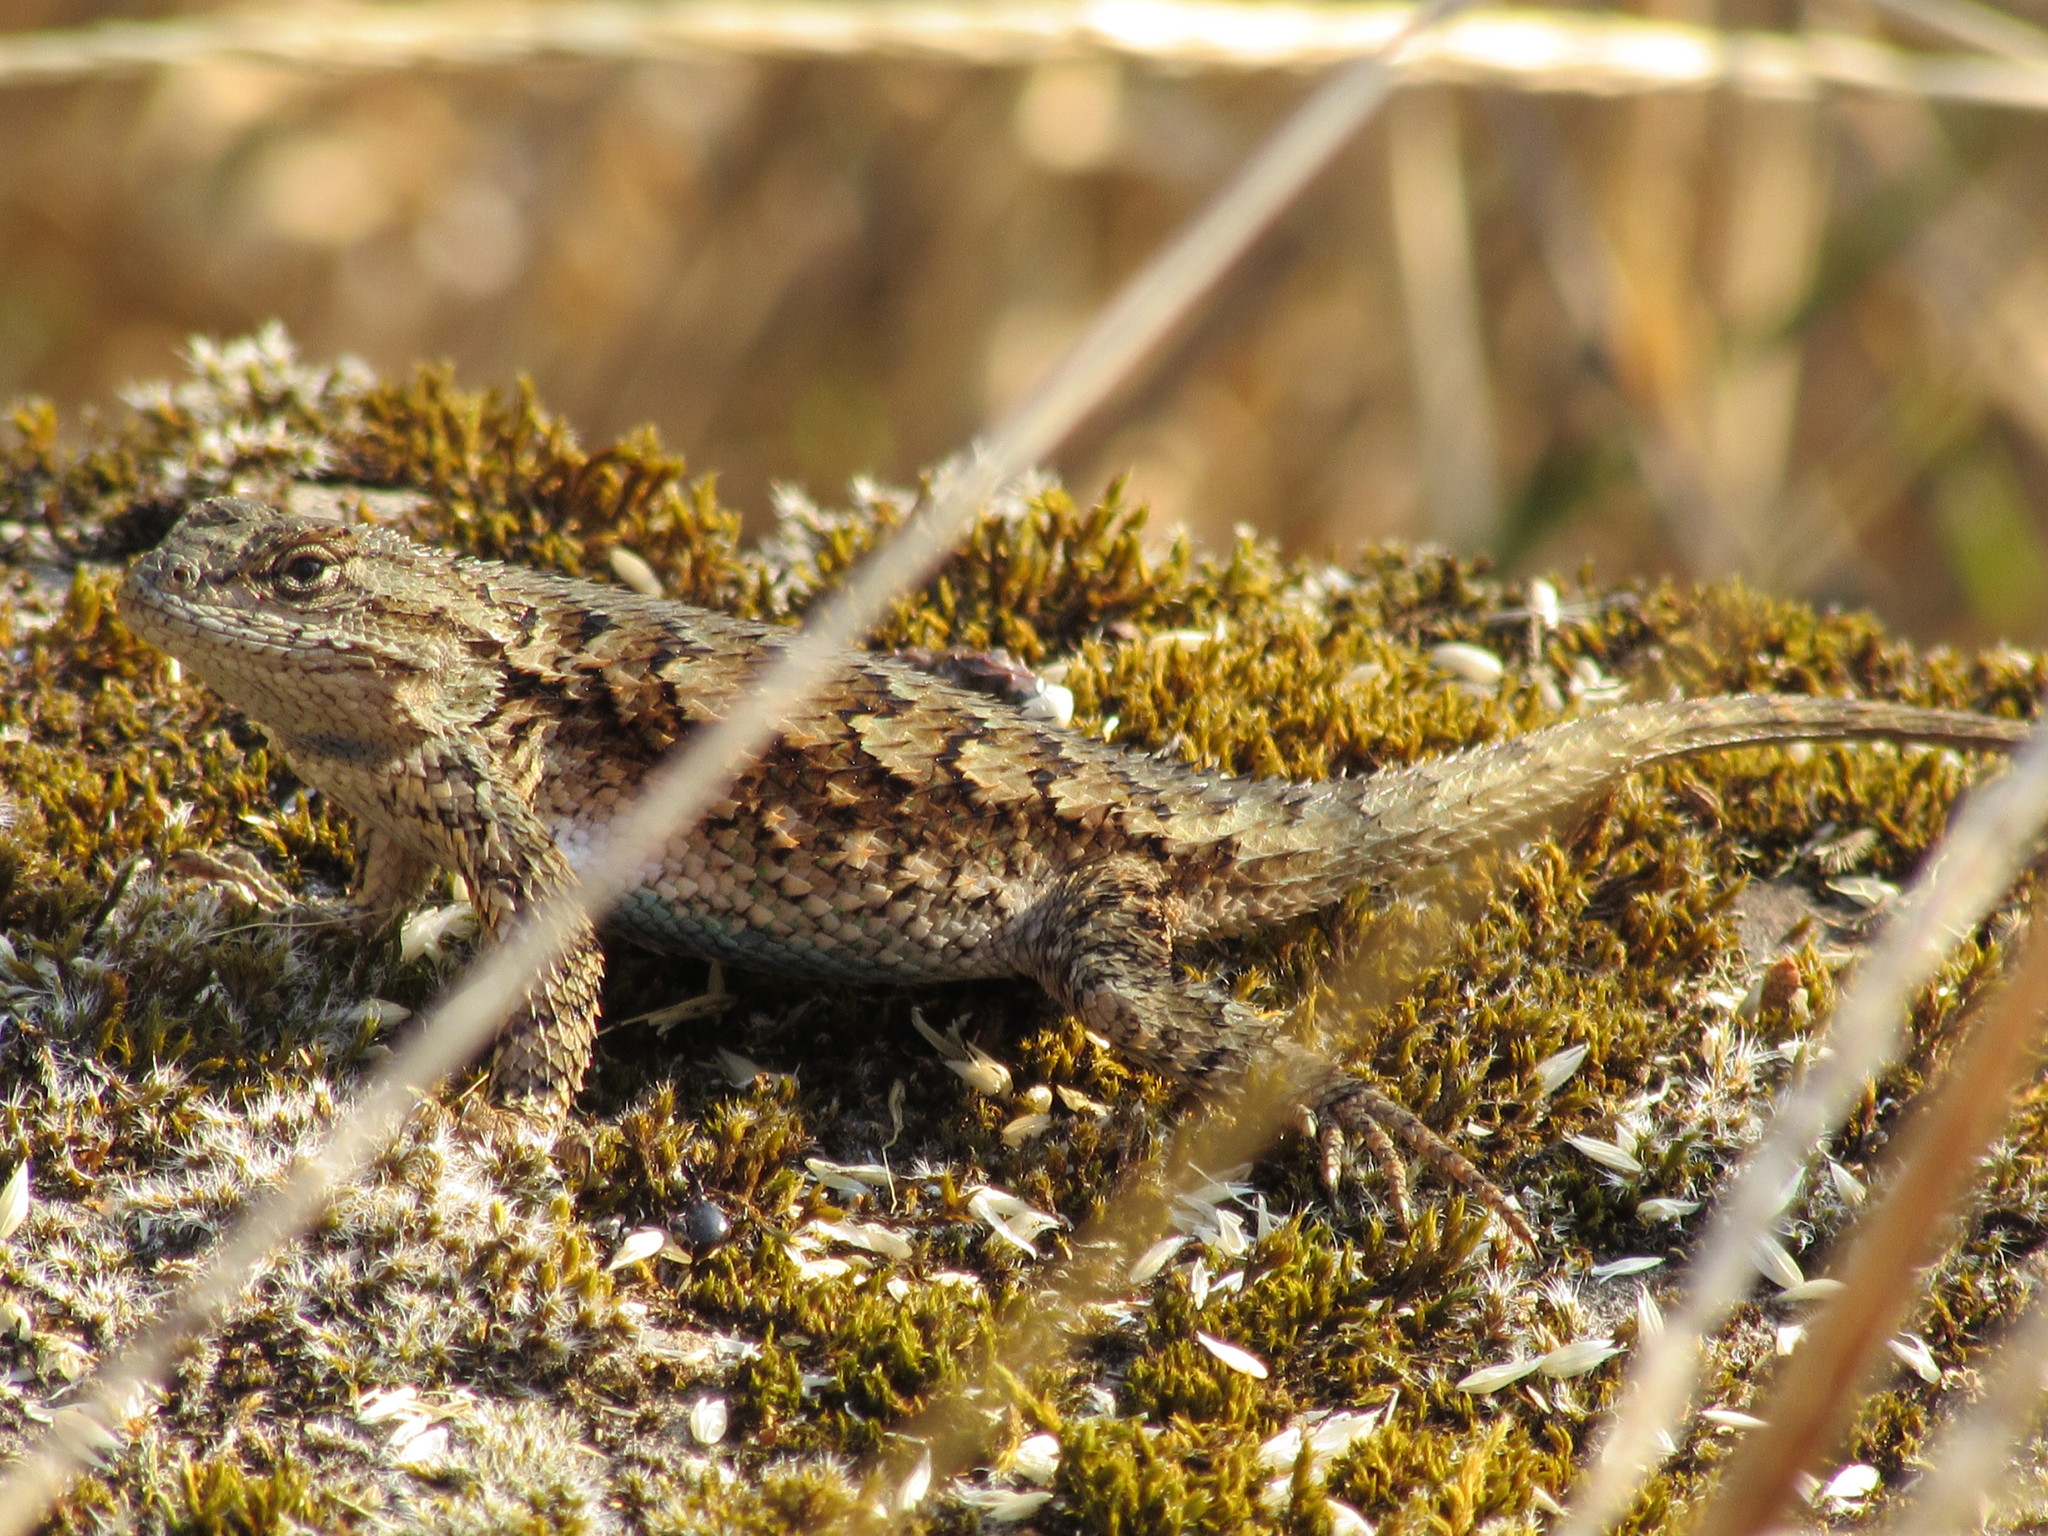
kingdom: Animalia
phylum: Chordata
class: Squamata
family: Phrynosomatidae
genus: Sceloporus
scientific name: Sceloporus occidentalis
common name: Western fence lizard
